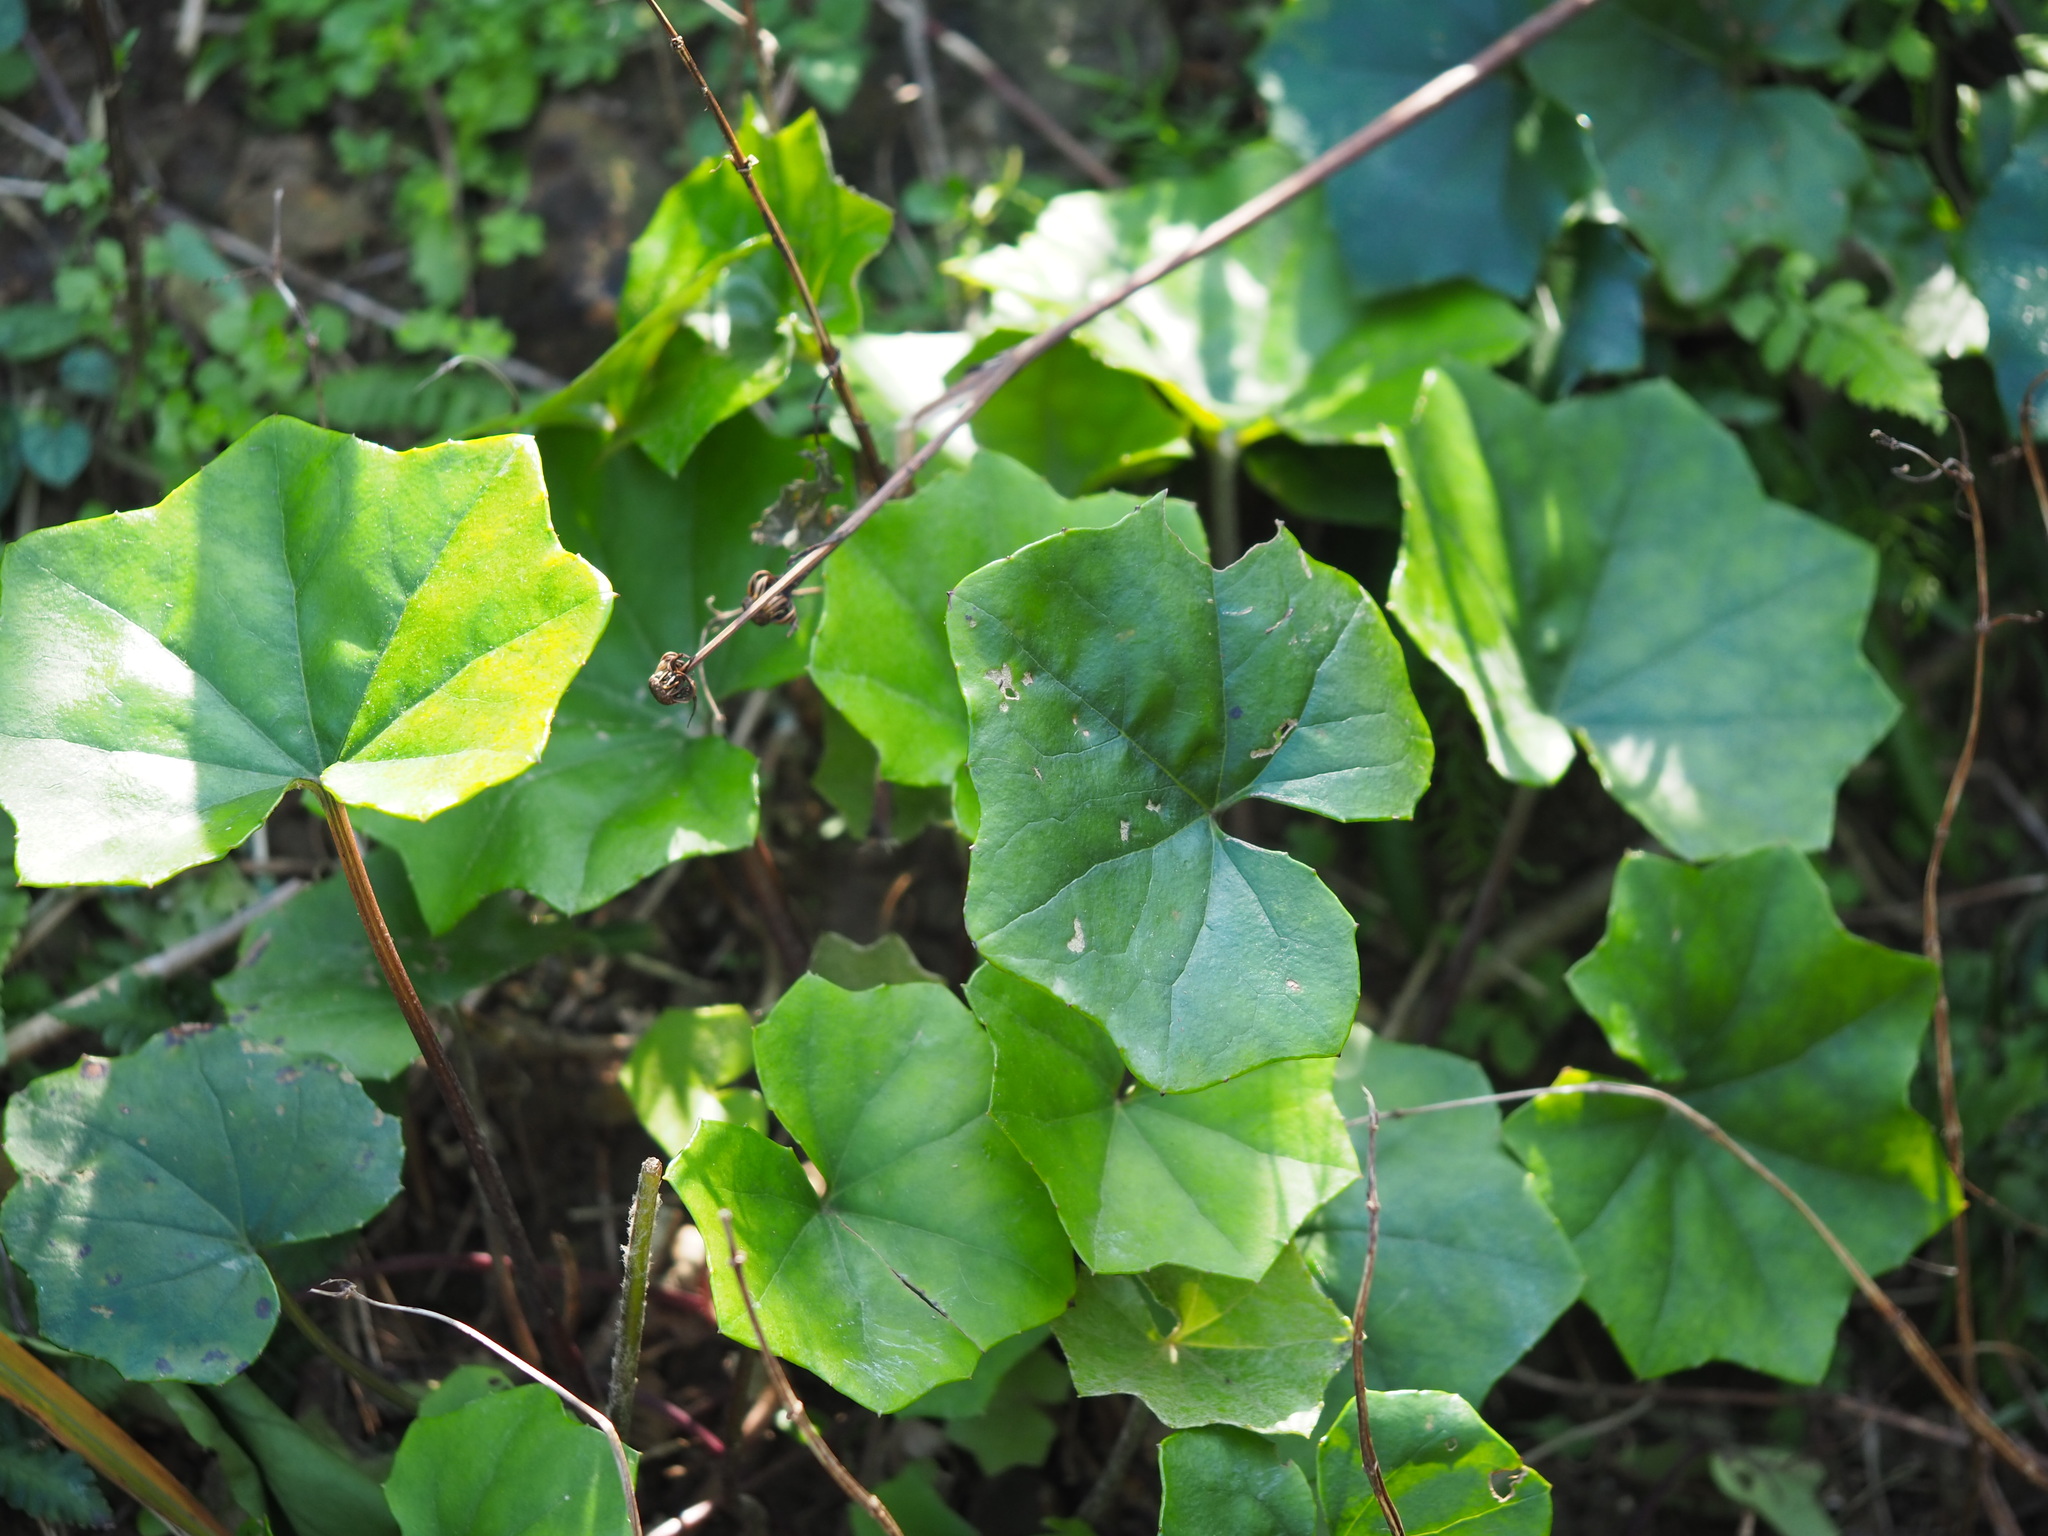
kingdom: Plantae
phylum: Tracheophyta
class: Magnoliopsida
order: Asterales
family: Asteraceae
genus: Farfugium
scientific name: Farfugium japonicum
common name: Leopardplant
